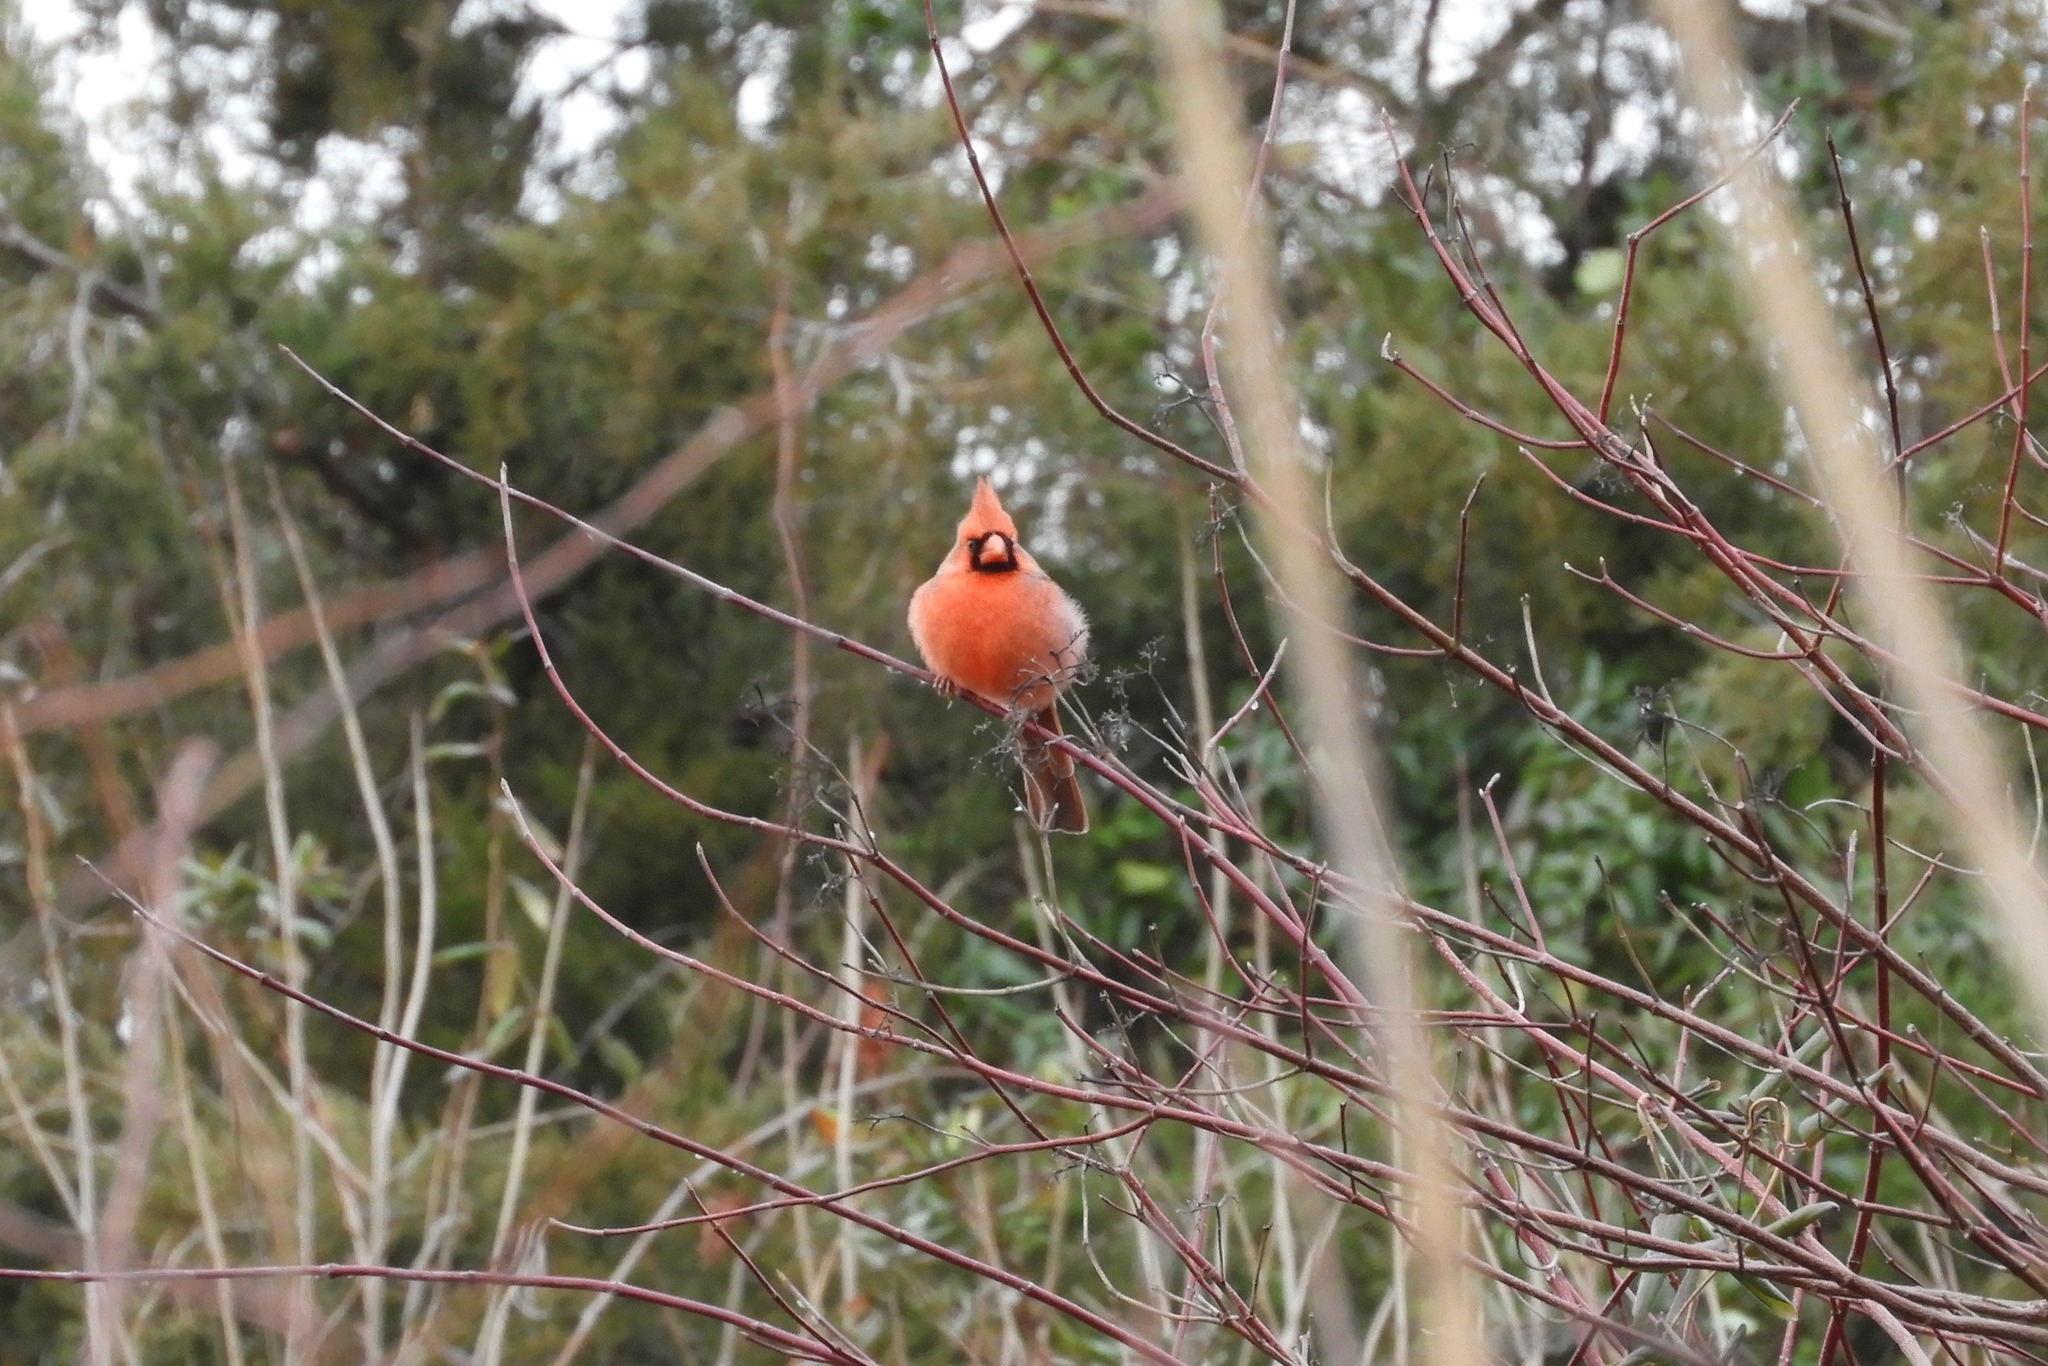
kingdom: Animalia
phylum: Chordata
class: Aves
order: Passeriformes
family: Cardinalidae
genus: Cardinalis
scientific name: Cardinalis cardinalis
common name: Northern cardinal
